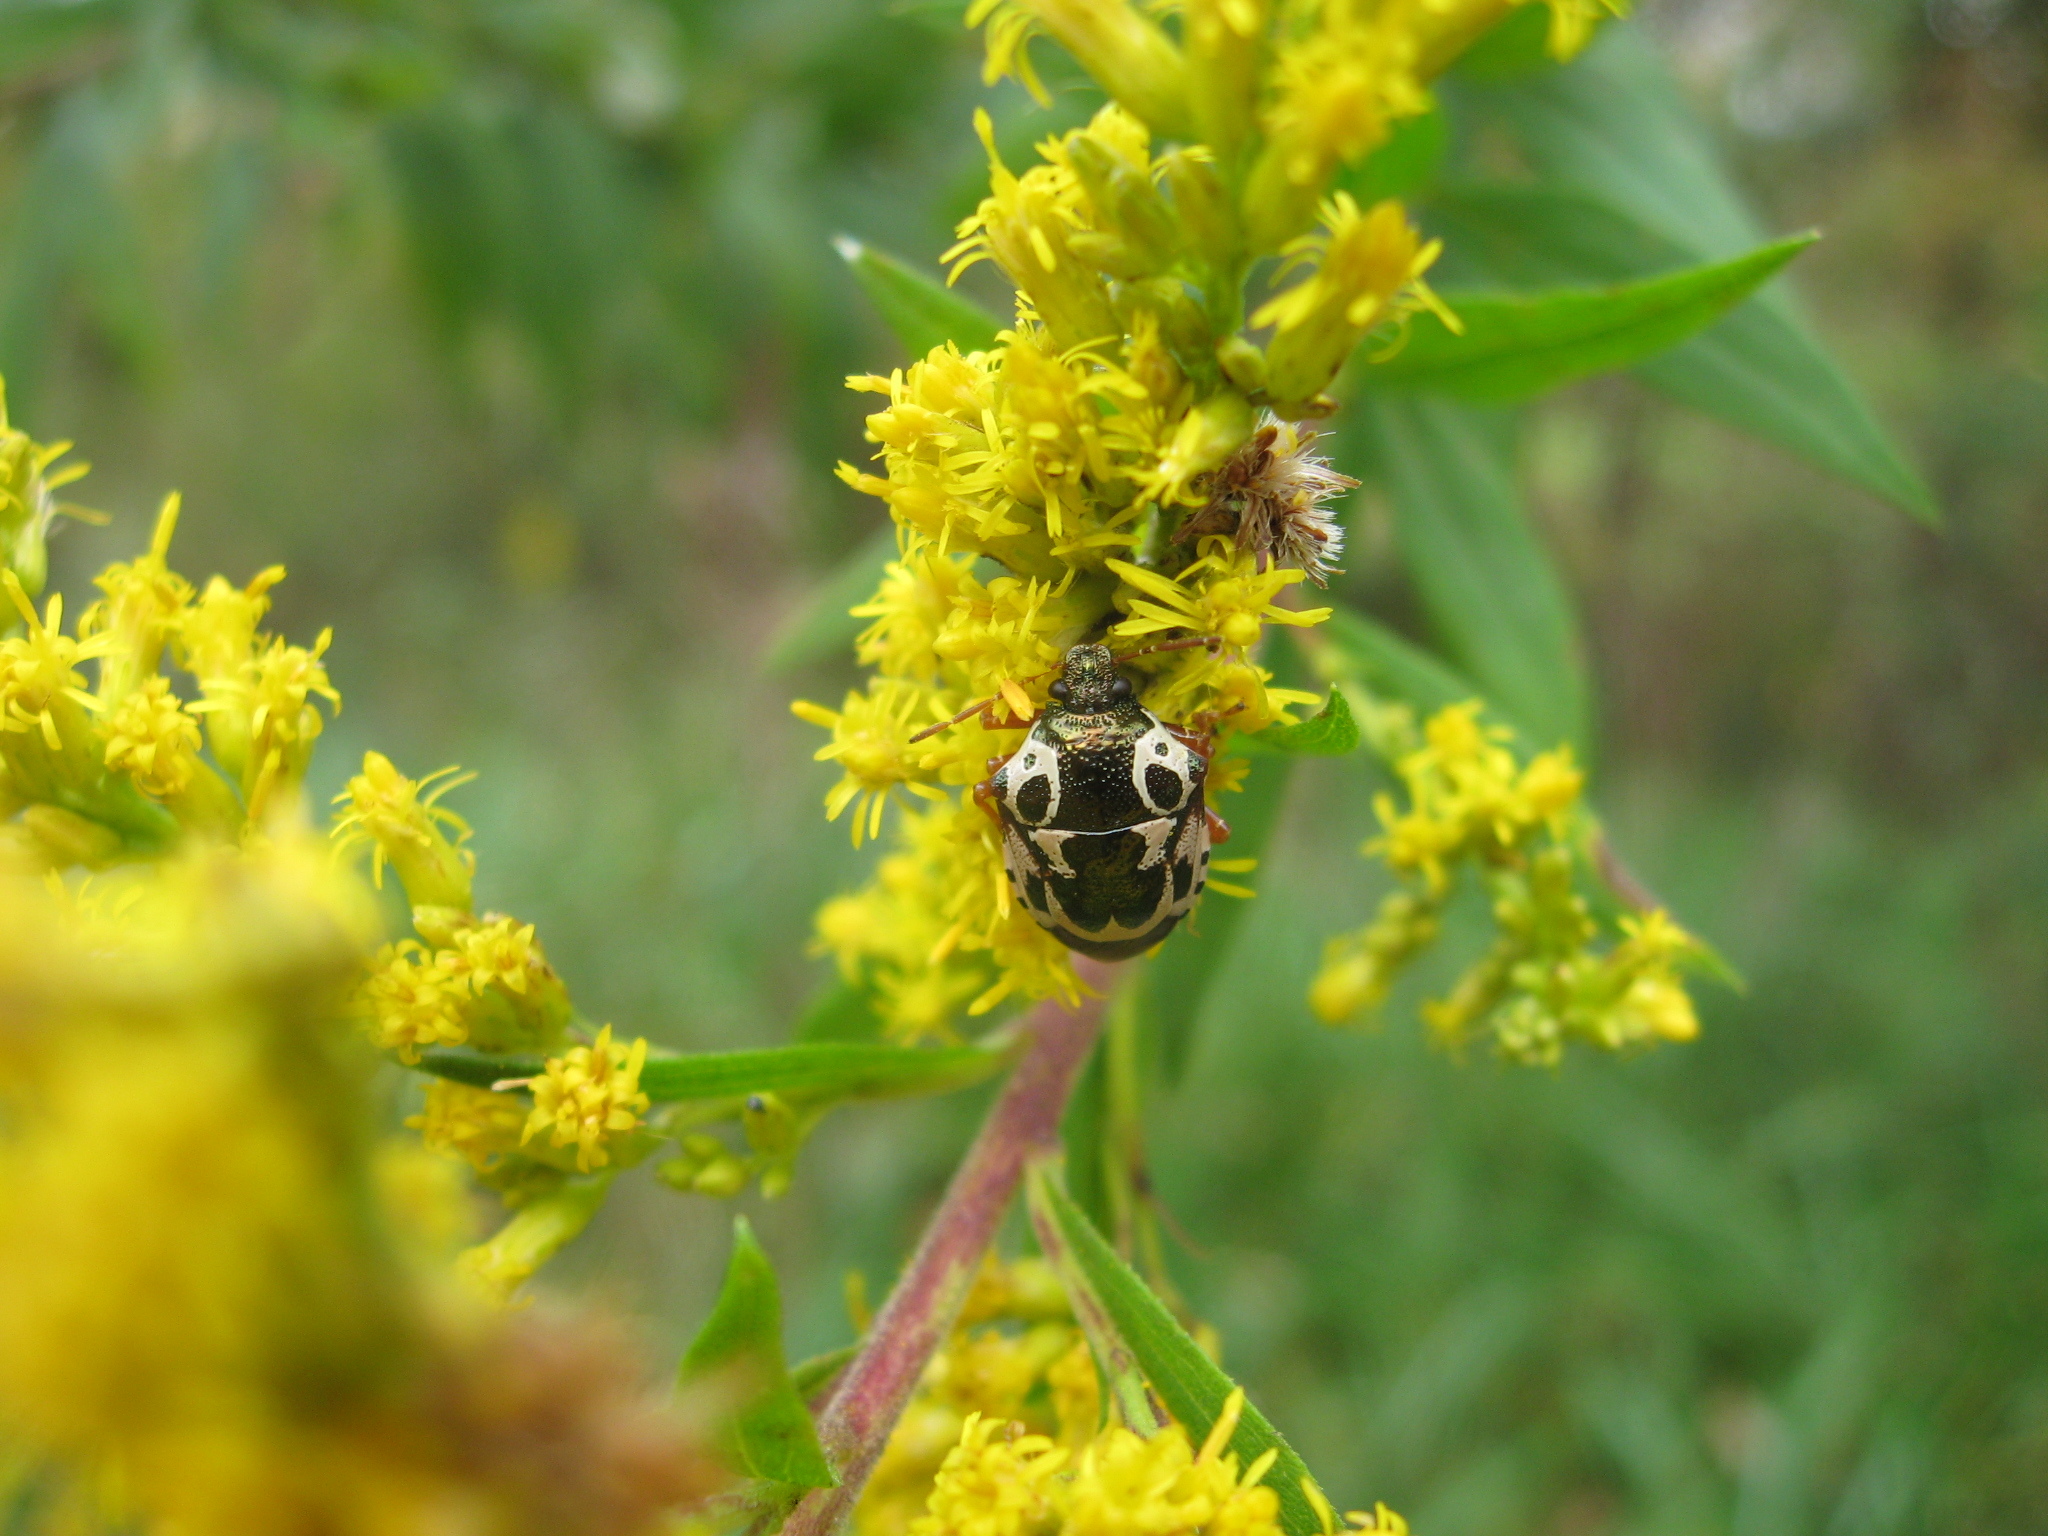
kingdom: Animalia
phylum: Arthropoda
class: Insecta
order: Hemiptera
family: Pentatomidae
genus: Stiretrus
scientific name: Stiretrus anchorago
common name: Anchor stink bug
